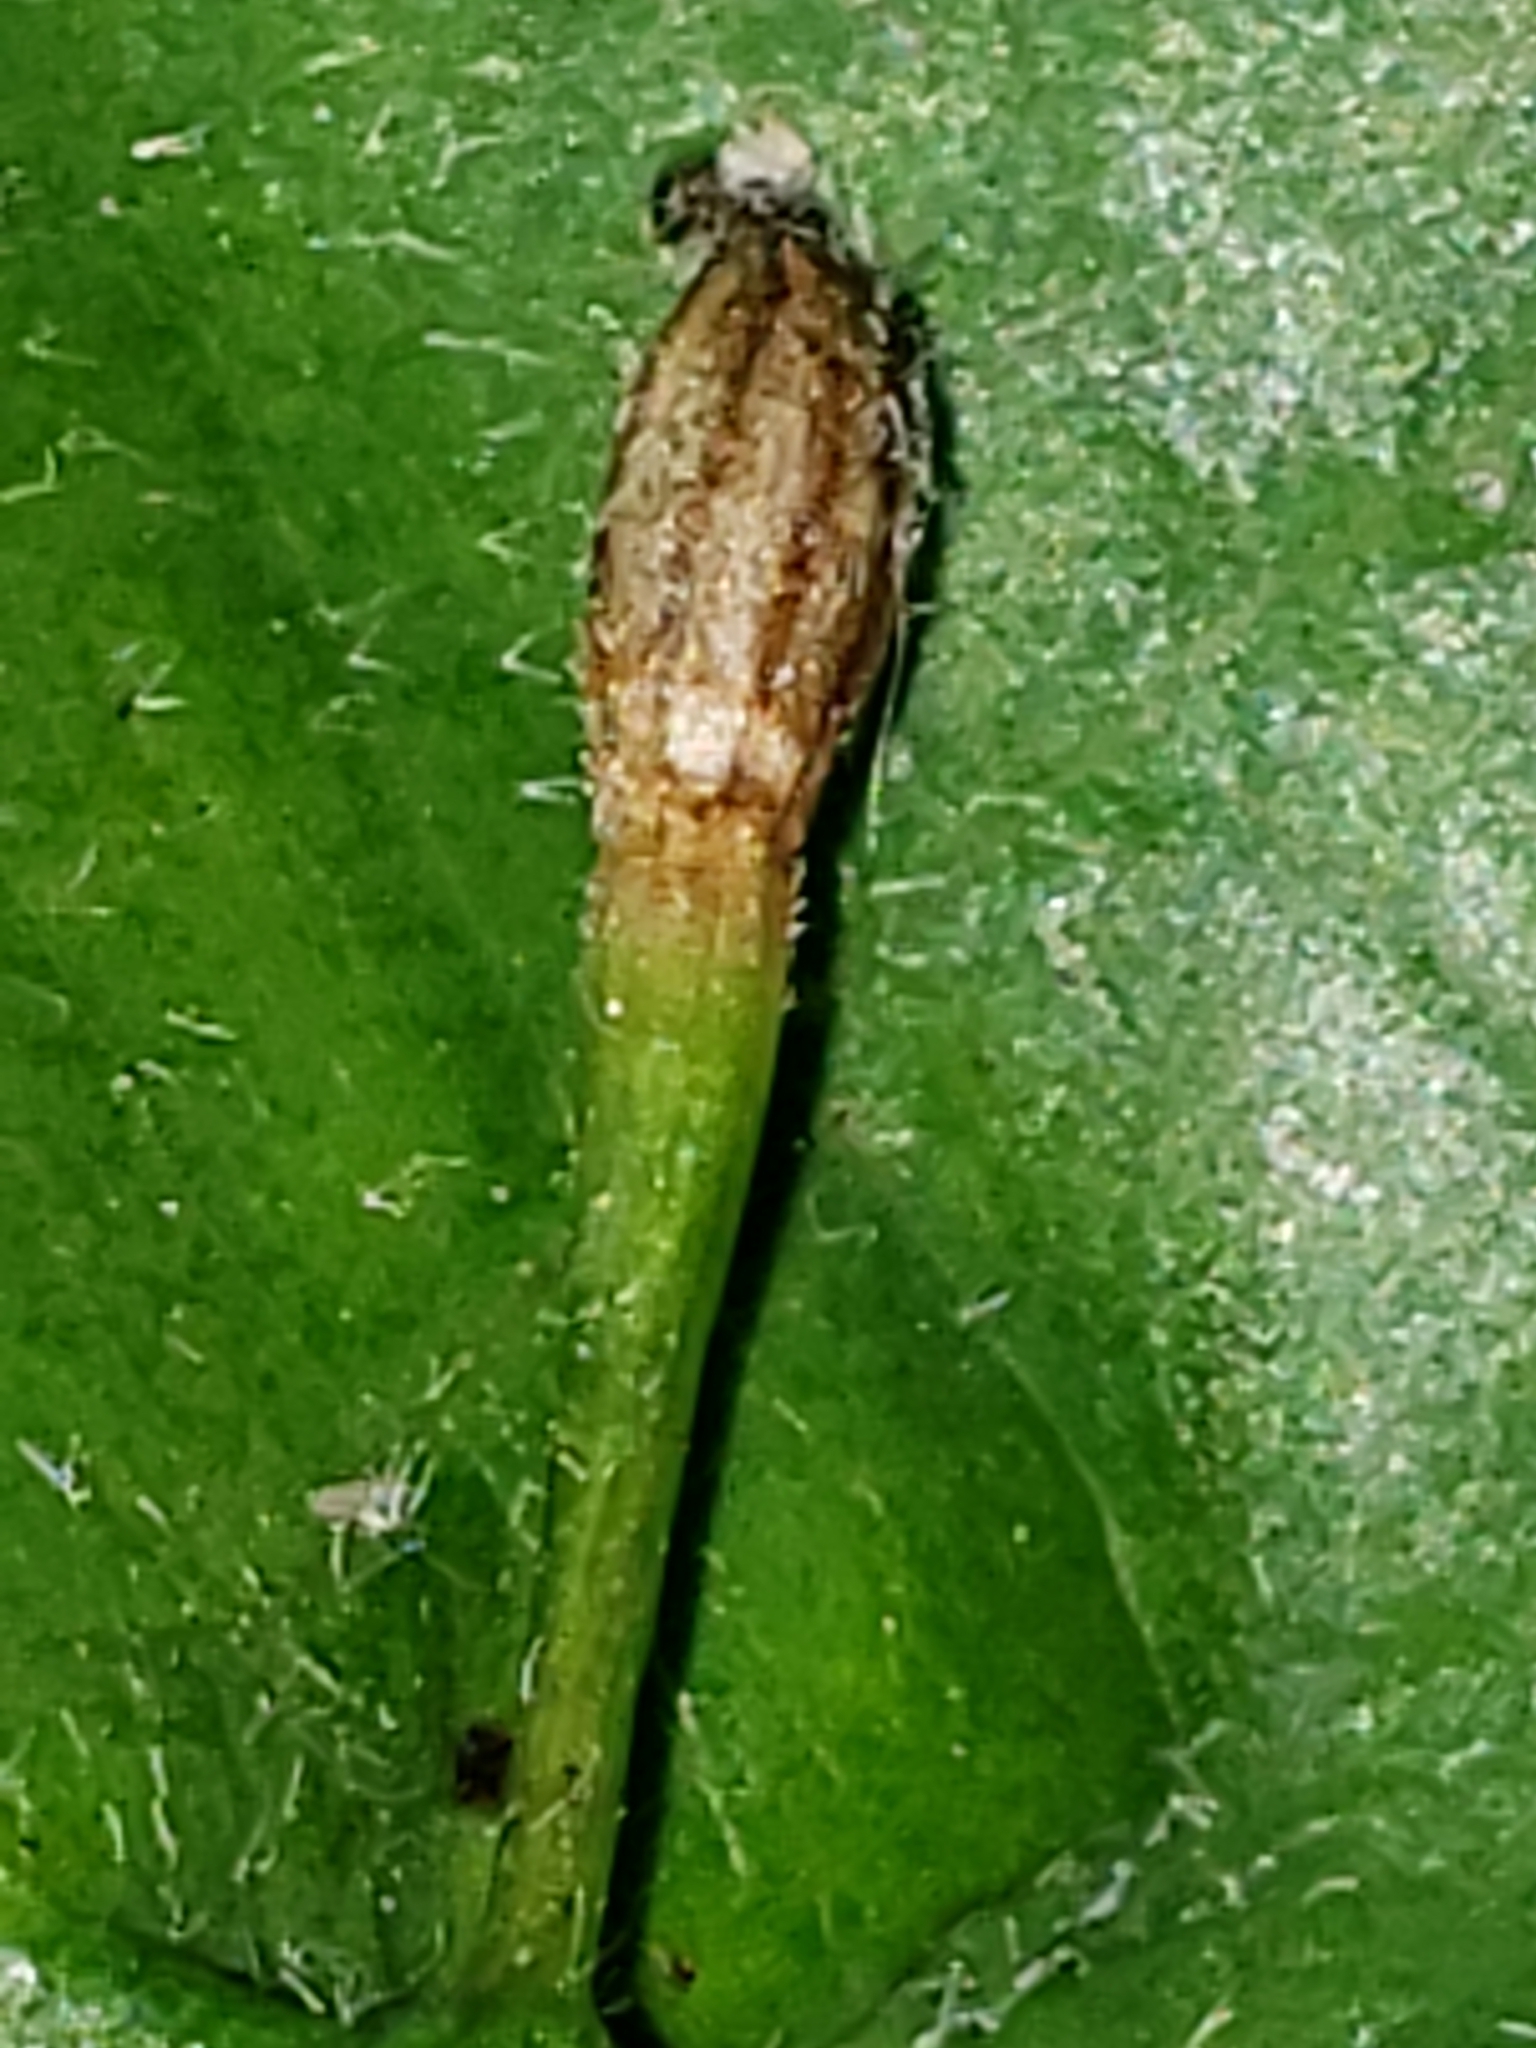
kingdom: Animalia
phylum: Arthropoda
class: Insecta
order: Hymenoptera
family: Cynipidae
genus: Andricus
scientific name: Andricus
